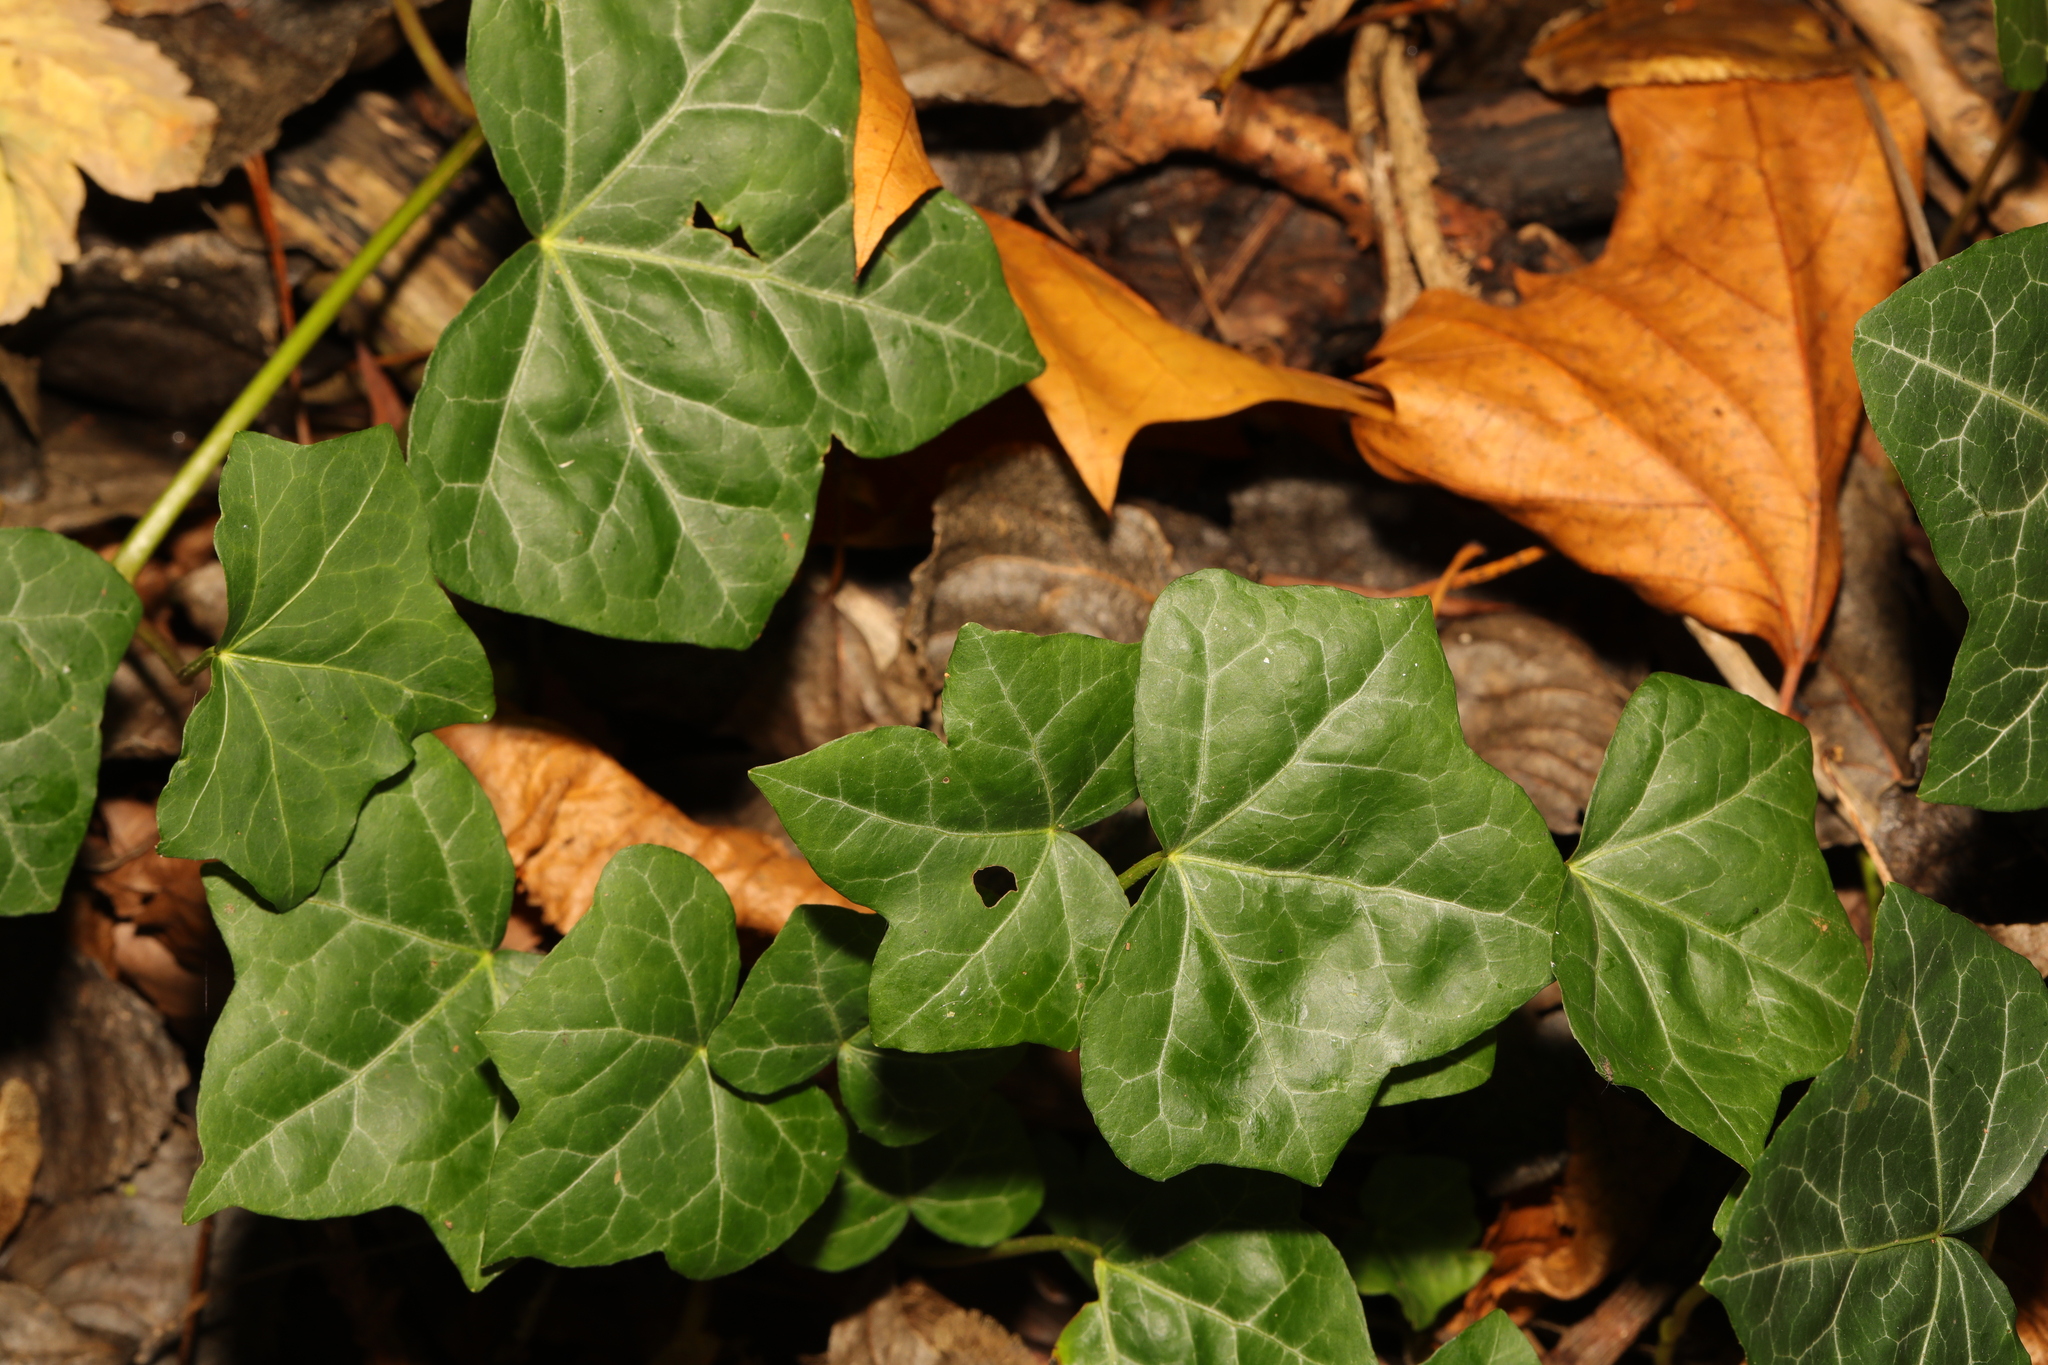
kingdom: Plantae
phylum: Tracheophyta
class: Magnoliopsida
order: Apiales
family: Araliaceae
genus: Hedera
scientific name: Hedera helix
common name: Ivy
